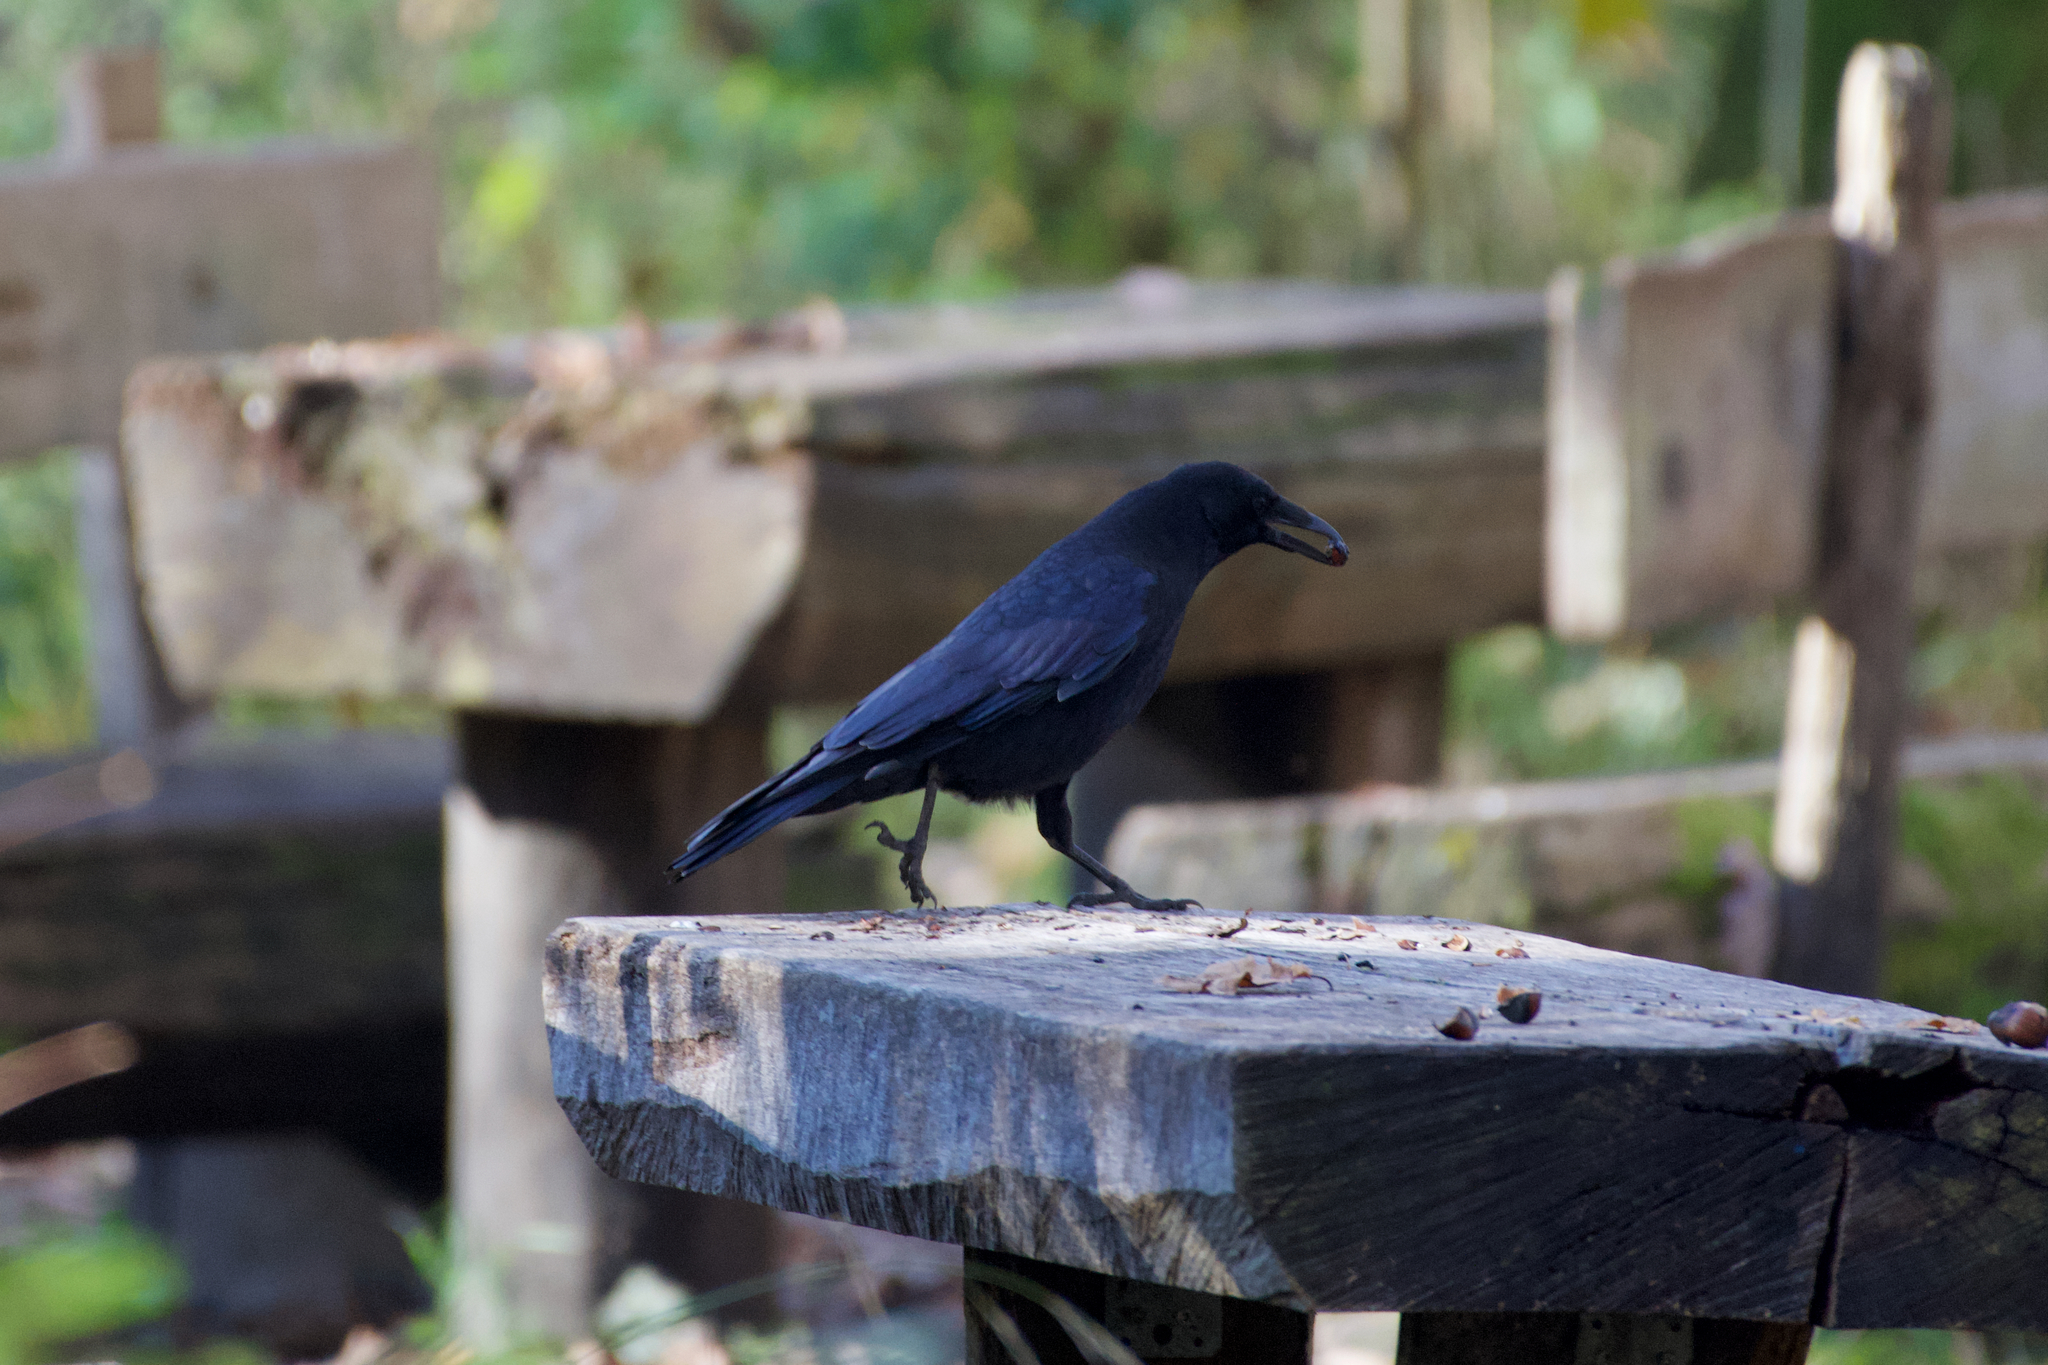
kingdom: Animalia
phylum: Chordata
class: Aves
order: Passeriformes
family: Corvidae
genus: Corvus
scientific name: Corvus corone
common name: Carrion crow
